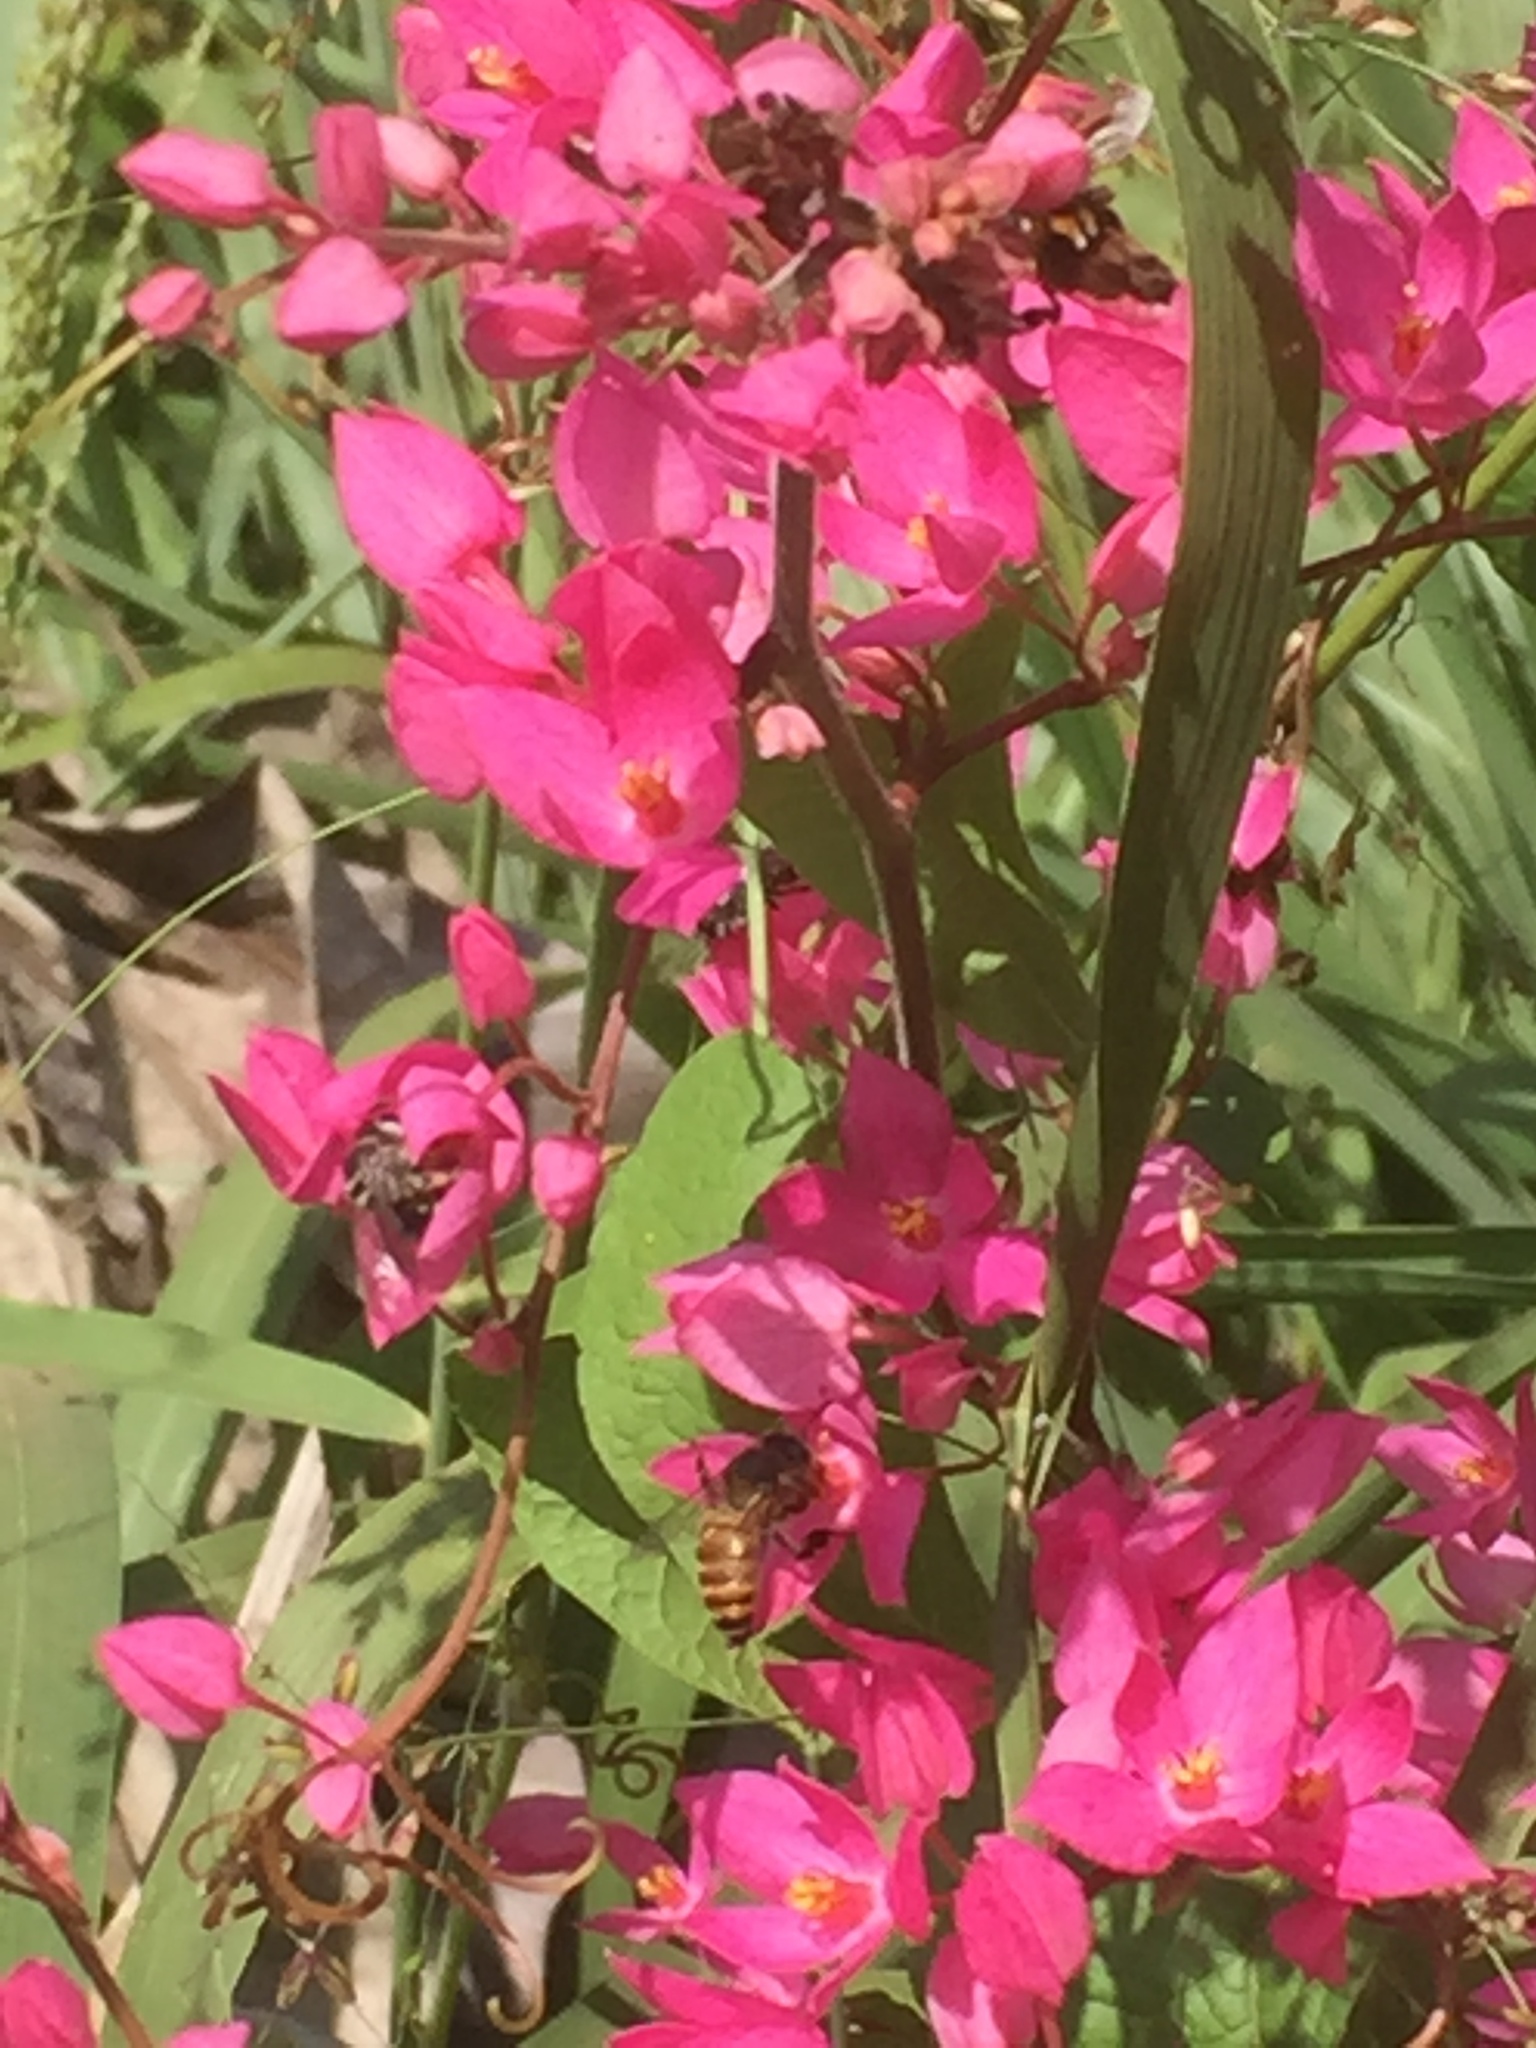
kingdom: Animalia
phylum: Arthropoda
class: Insecta
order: Hymenoptera
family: Apidae
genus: Apis
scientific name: Apis cerana
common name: Honey bee
